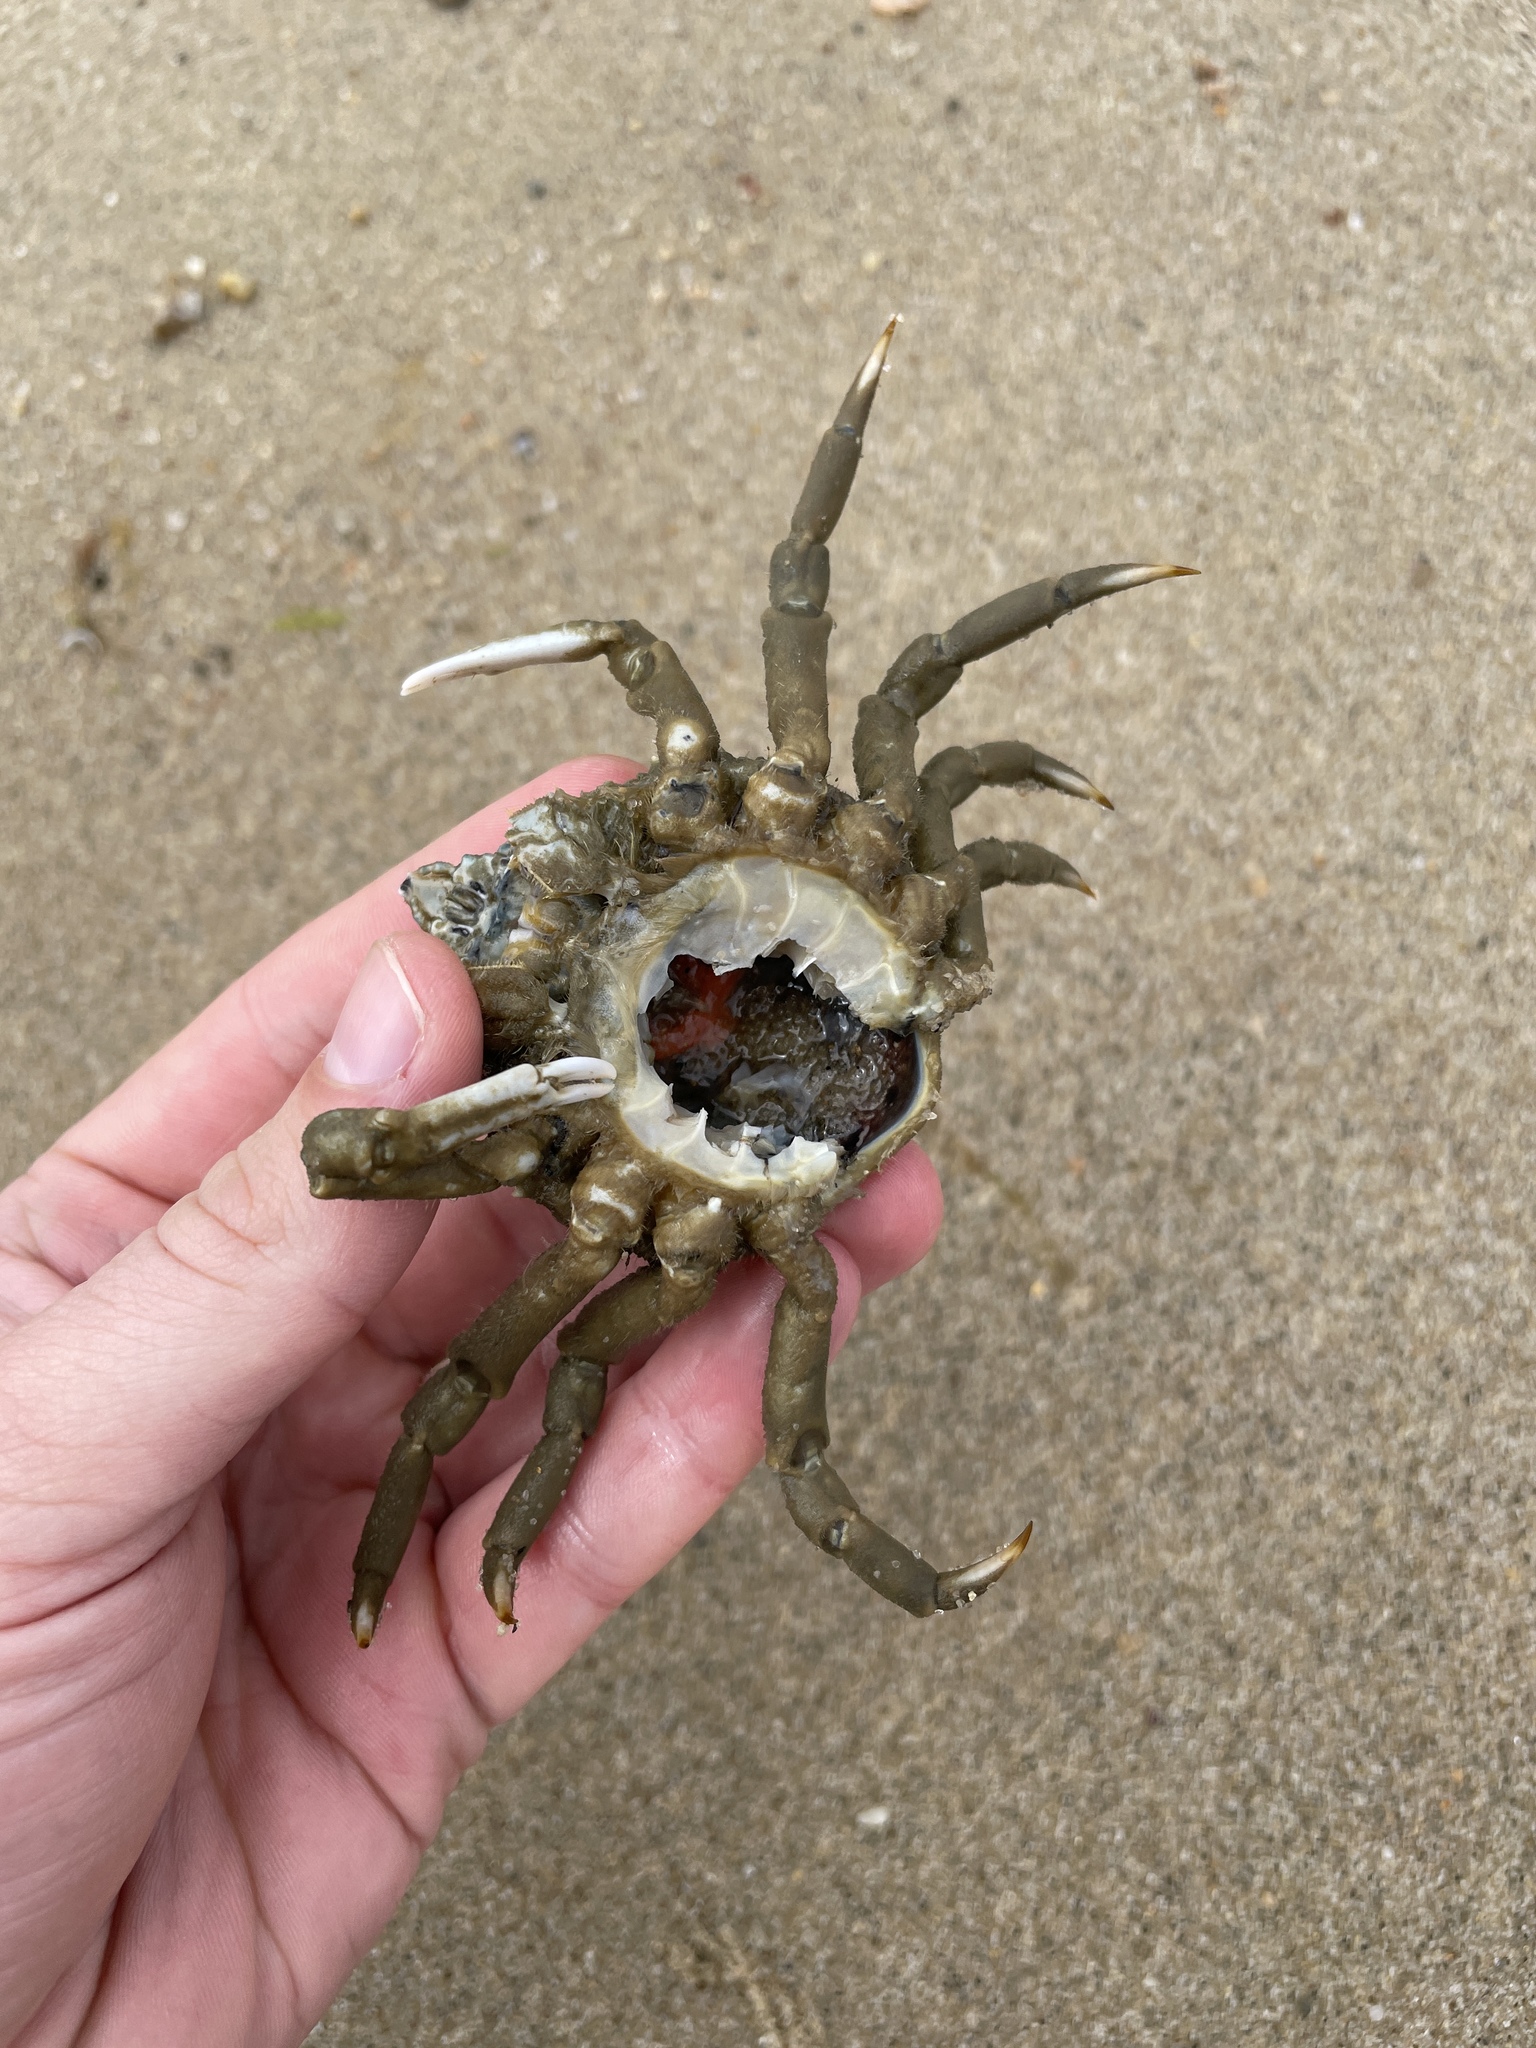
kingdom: Animalia
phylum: Arthropoda
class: Malacostraca
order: Decapoda
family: Epialtidae
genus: Libinia
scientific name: Libinia emarginata
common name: Common spider crab
